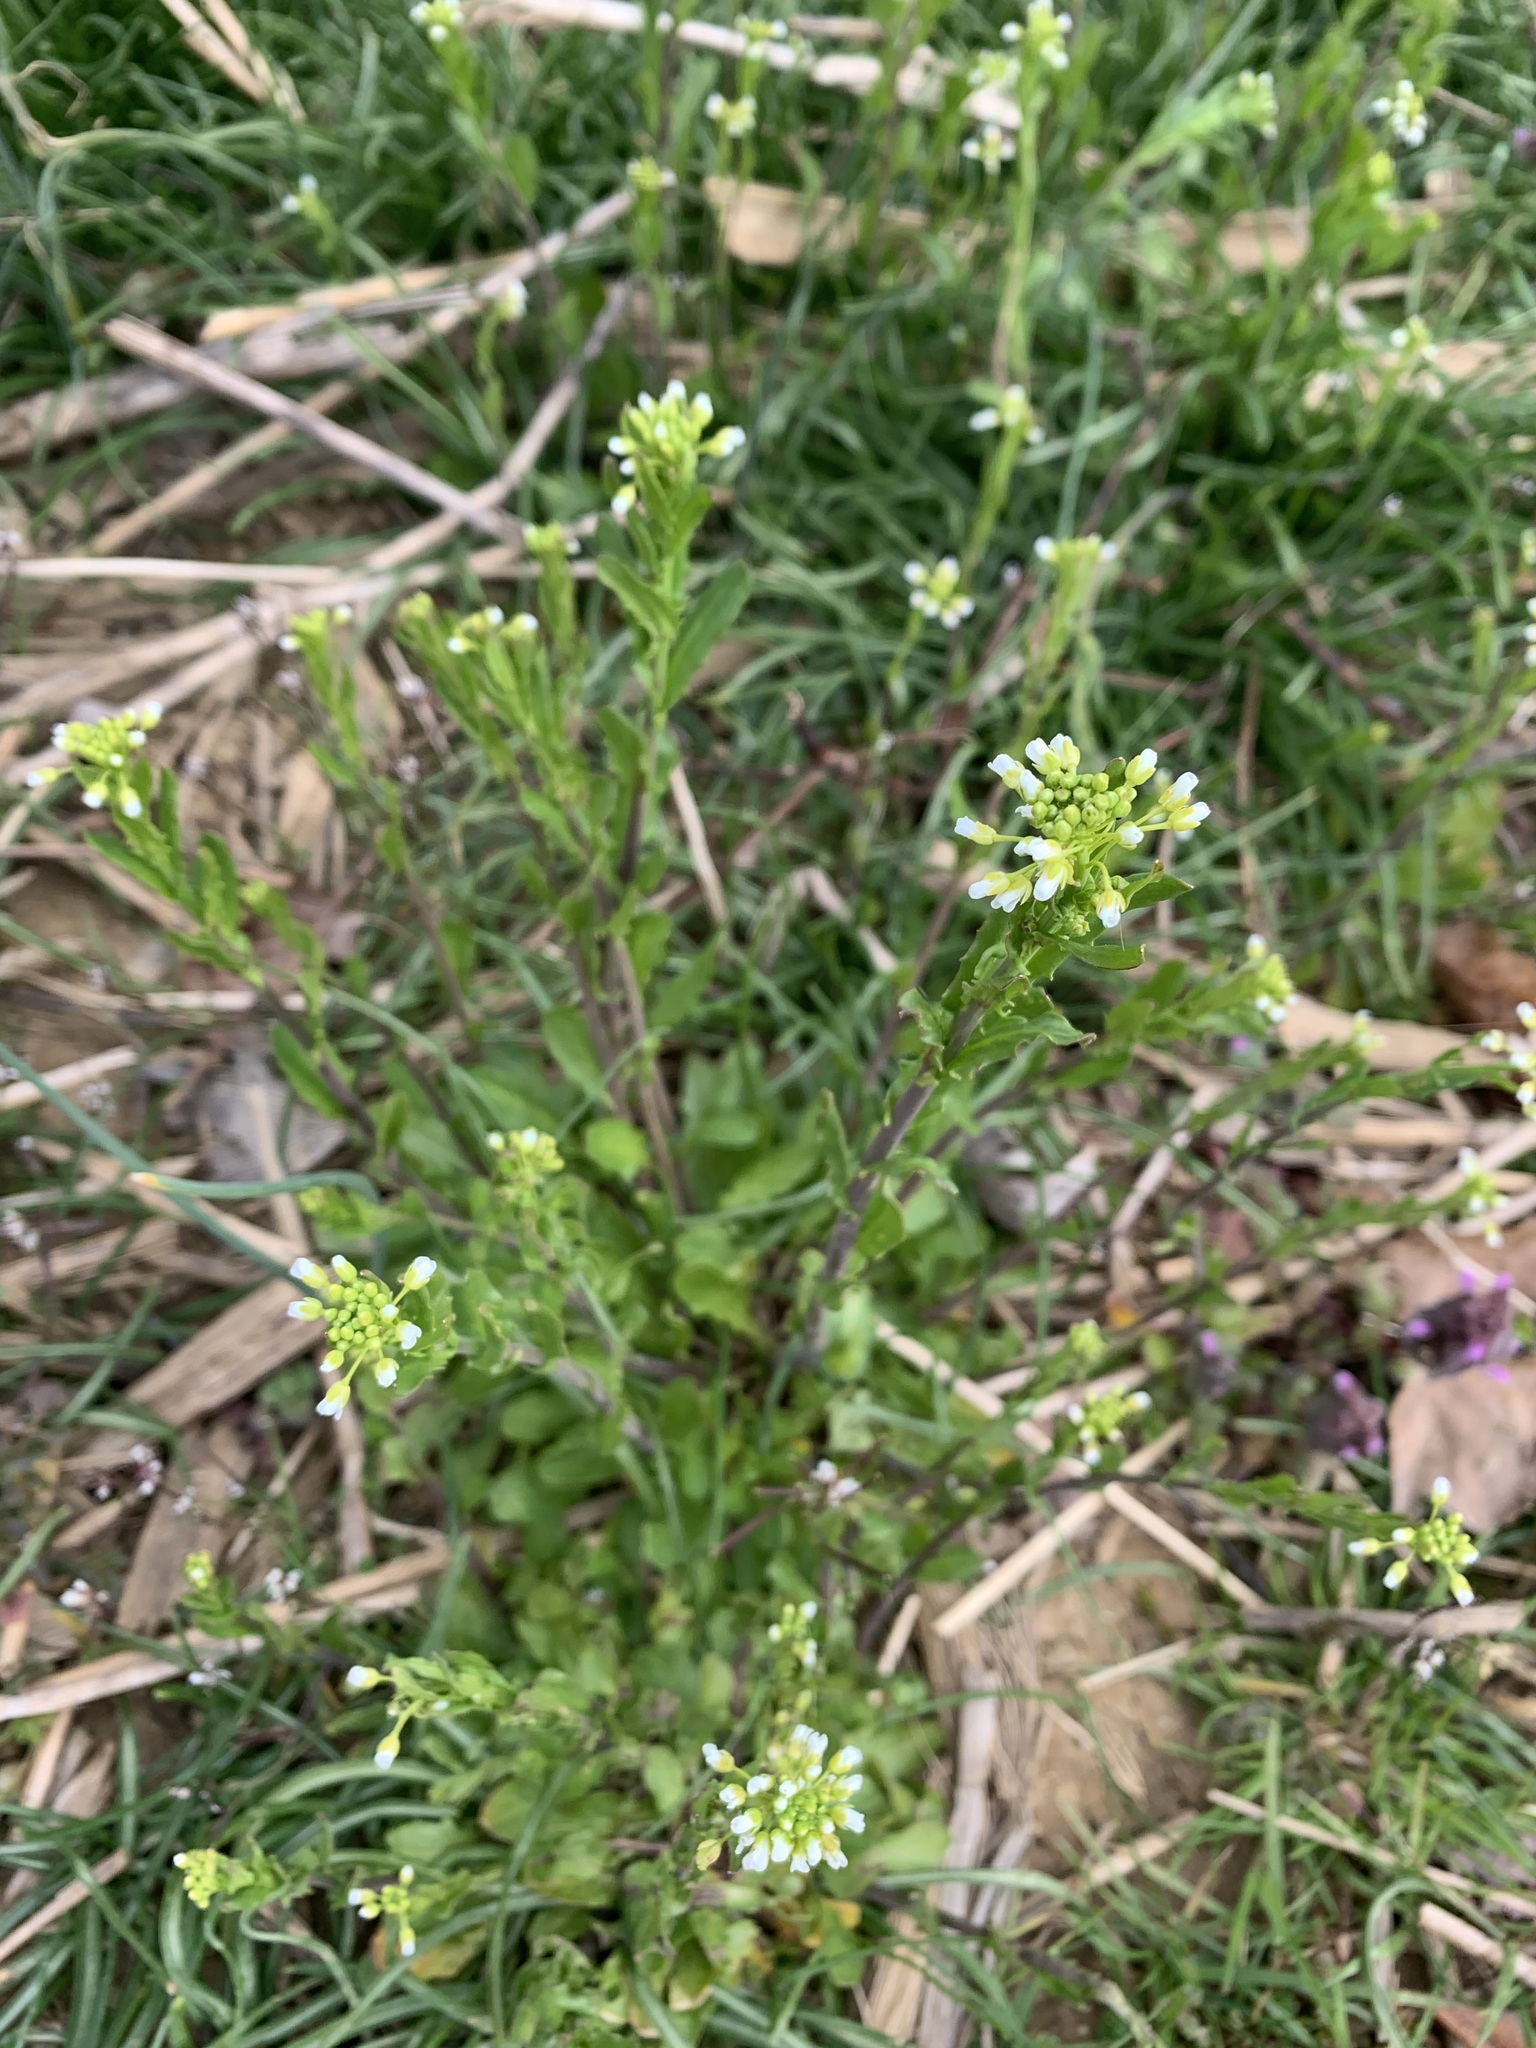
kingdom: Plantae
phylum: Tracheophyta
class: Magnoliopsida
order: Brassicales
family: Brassicaceae
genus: Mummenhoffia
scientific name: Mummenhoffia alliacea
